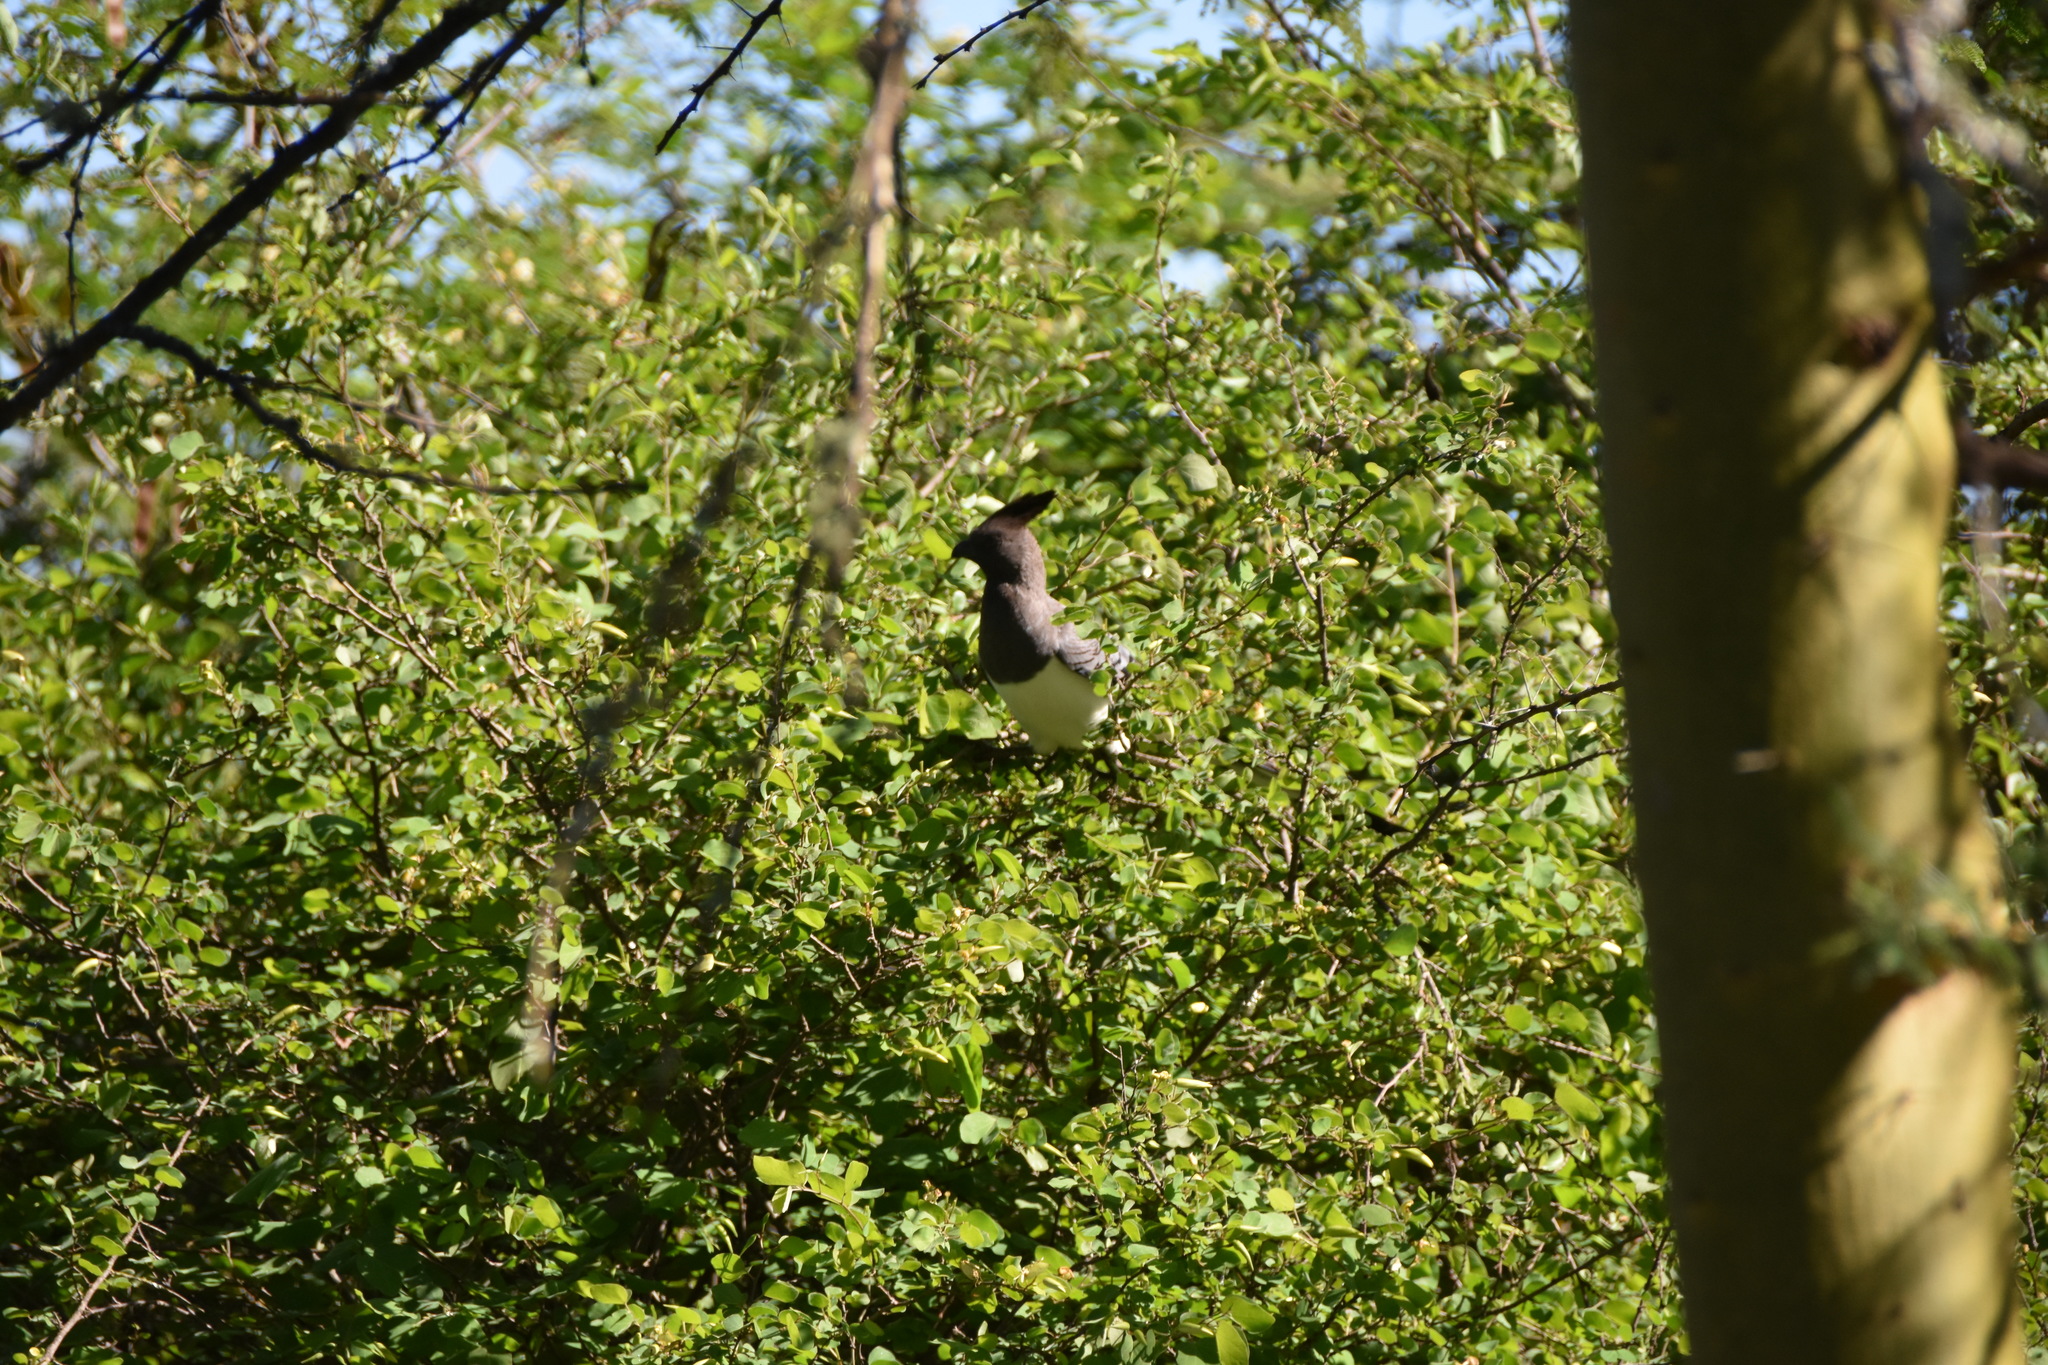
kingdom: Animalia
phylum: Chordata
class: Aves
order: Musophagiformes
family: Musophagidae
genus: Corythaixoides
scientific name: Corythaixoides leucogaster
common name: White-bellied go-away-bird
